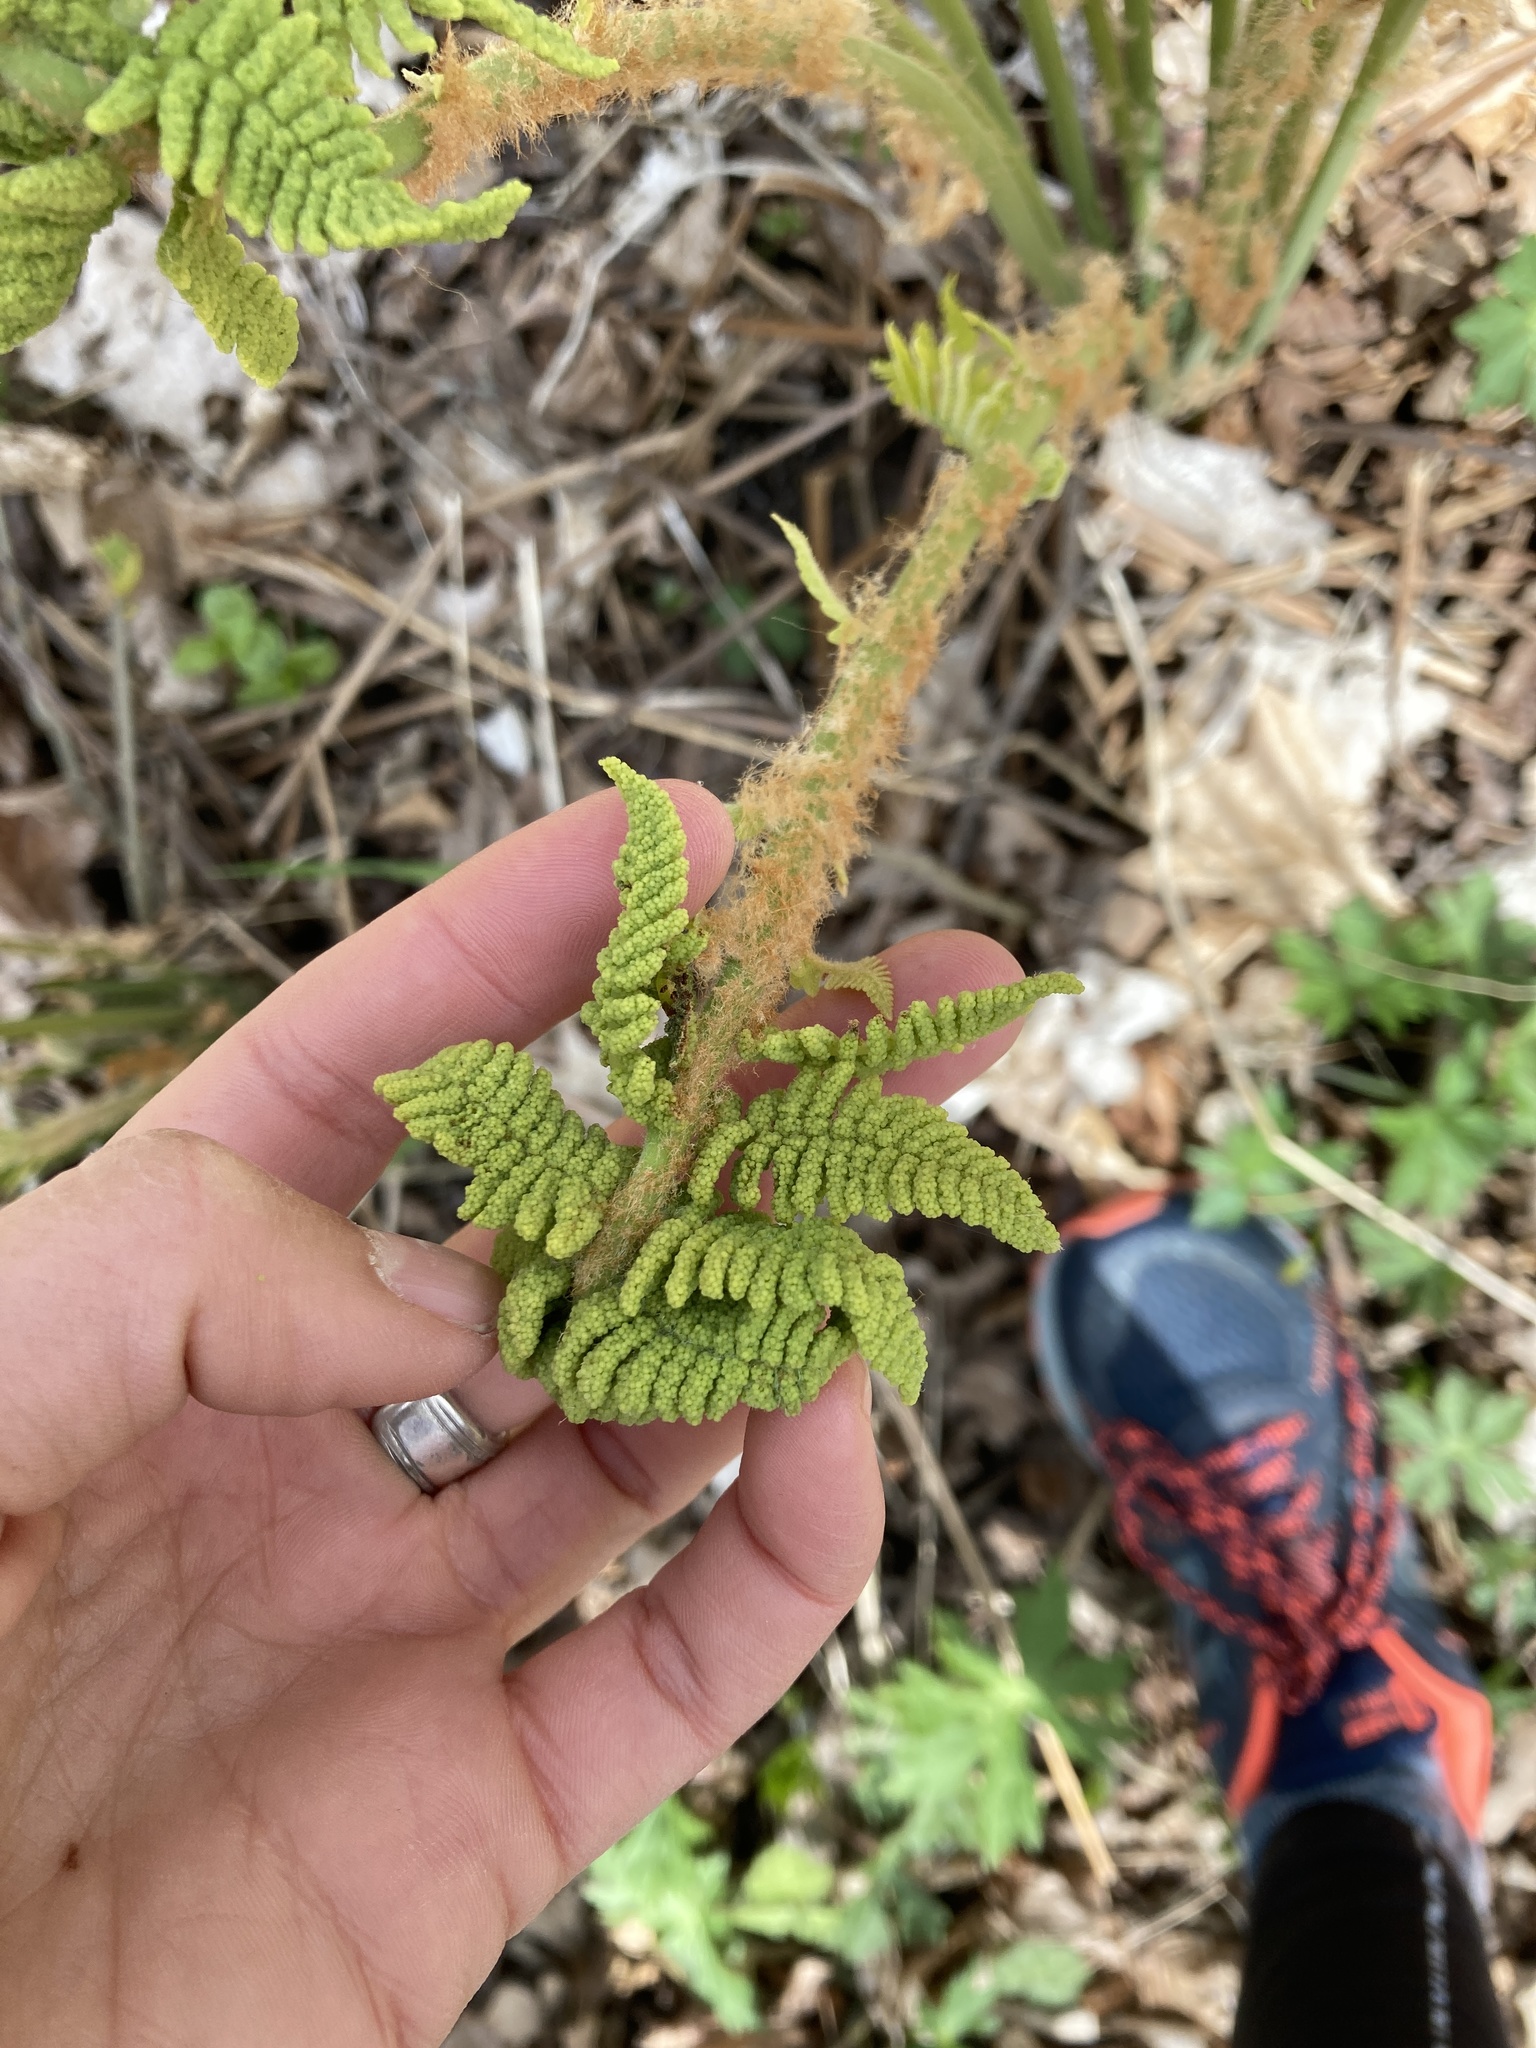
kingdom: Plantae
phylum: Tracheophyta
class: Polypodiopsida
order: Osmundales
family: Osmundaceae
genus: Claytosmunda
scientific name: Claytosmunda claytoniana
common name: Clayton's fern
